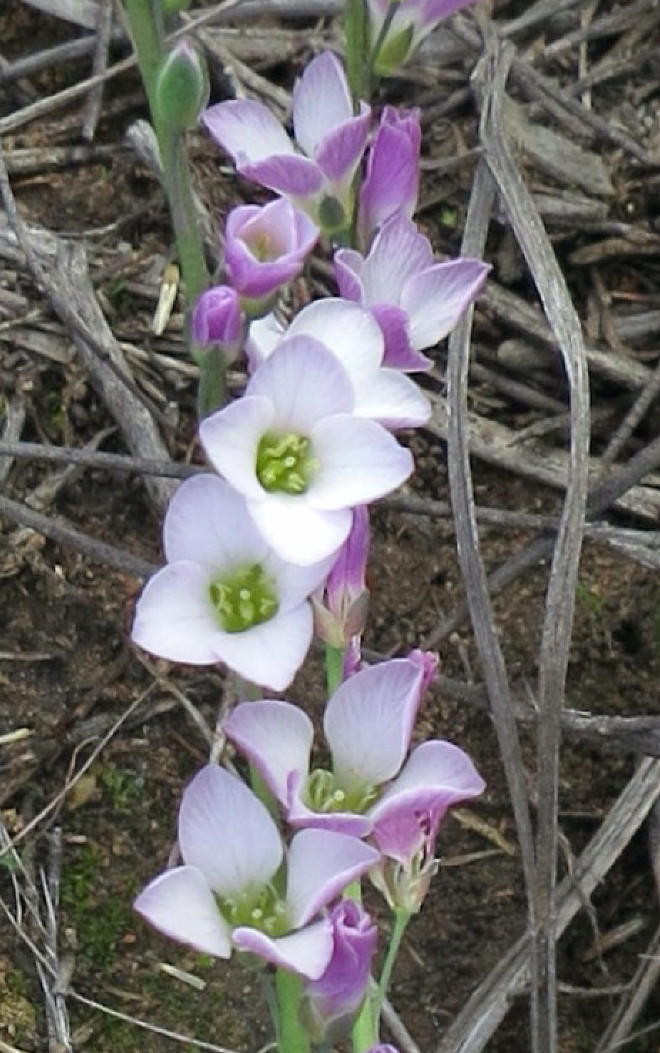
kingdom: Plantae
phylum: Tracheophyta
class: Magnoliopsida
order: Brassicales
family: Brassicaceae
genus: Heliophila
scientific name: Heliophila glauca
